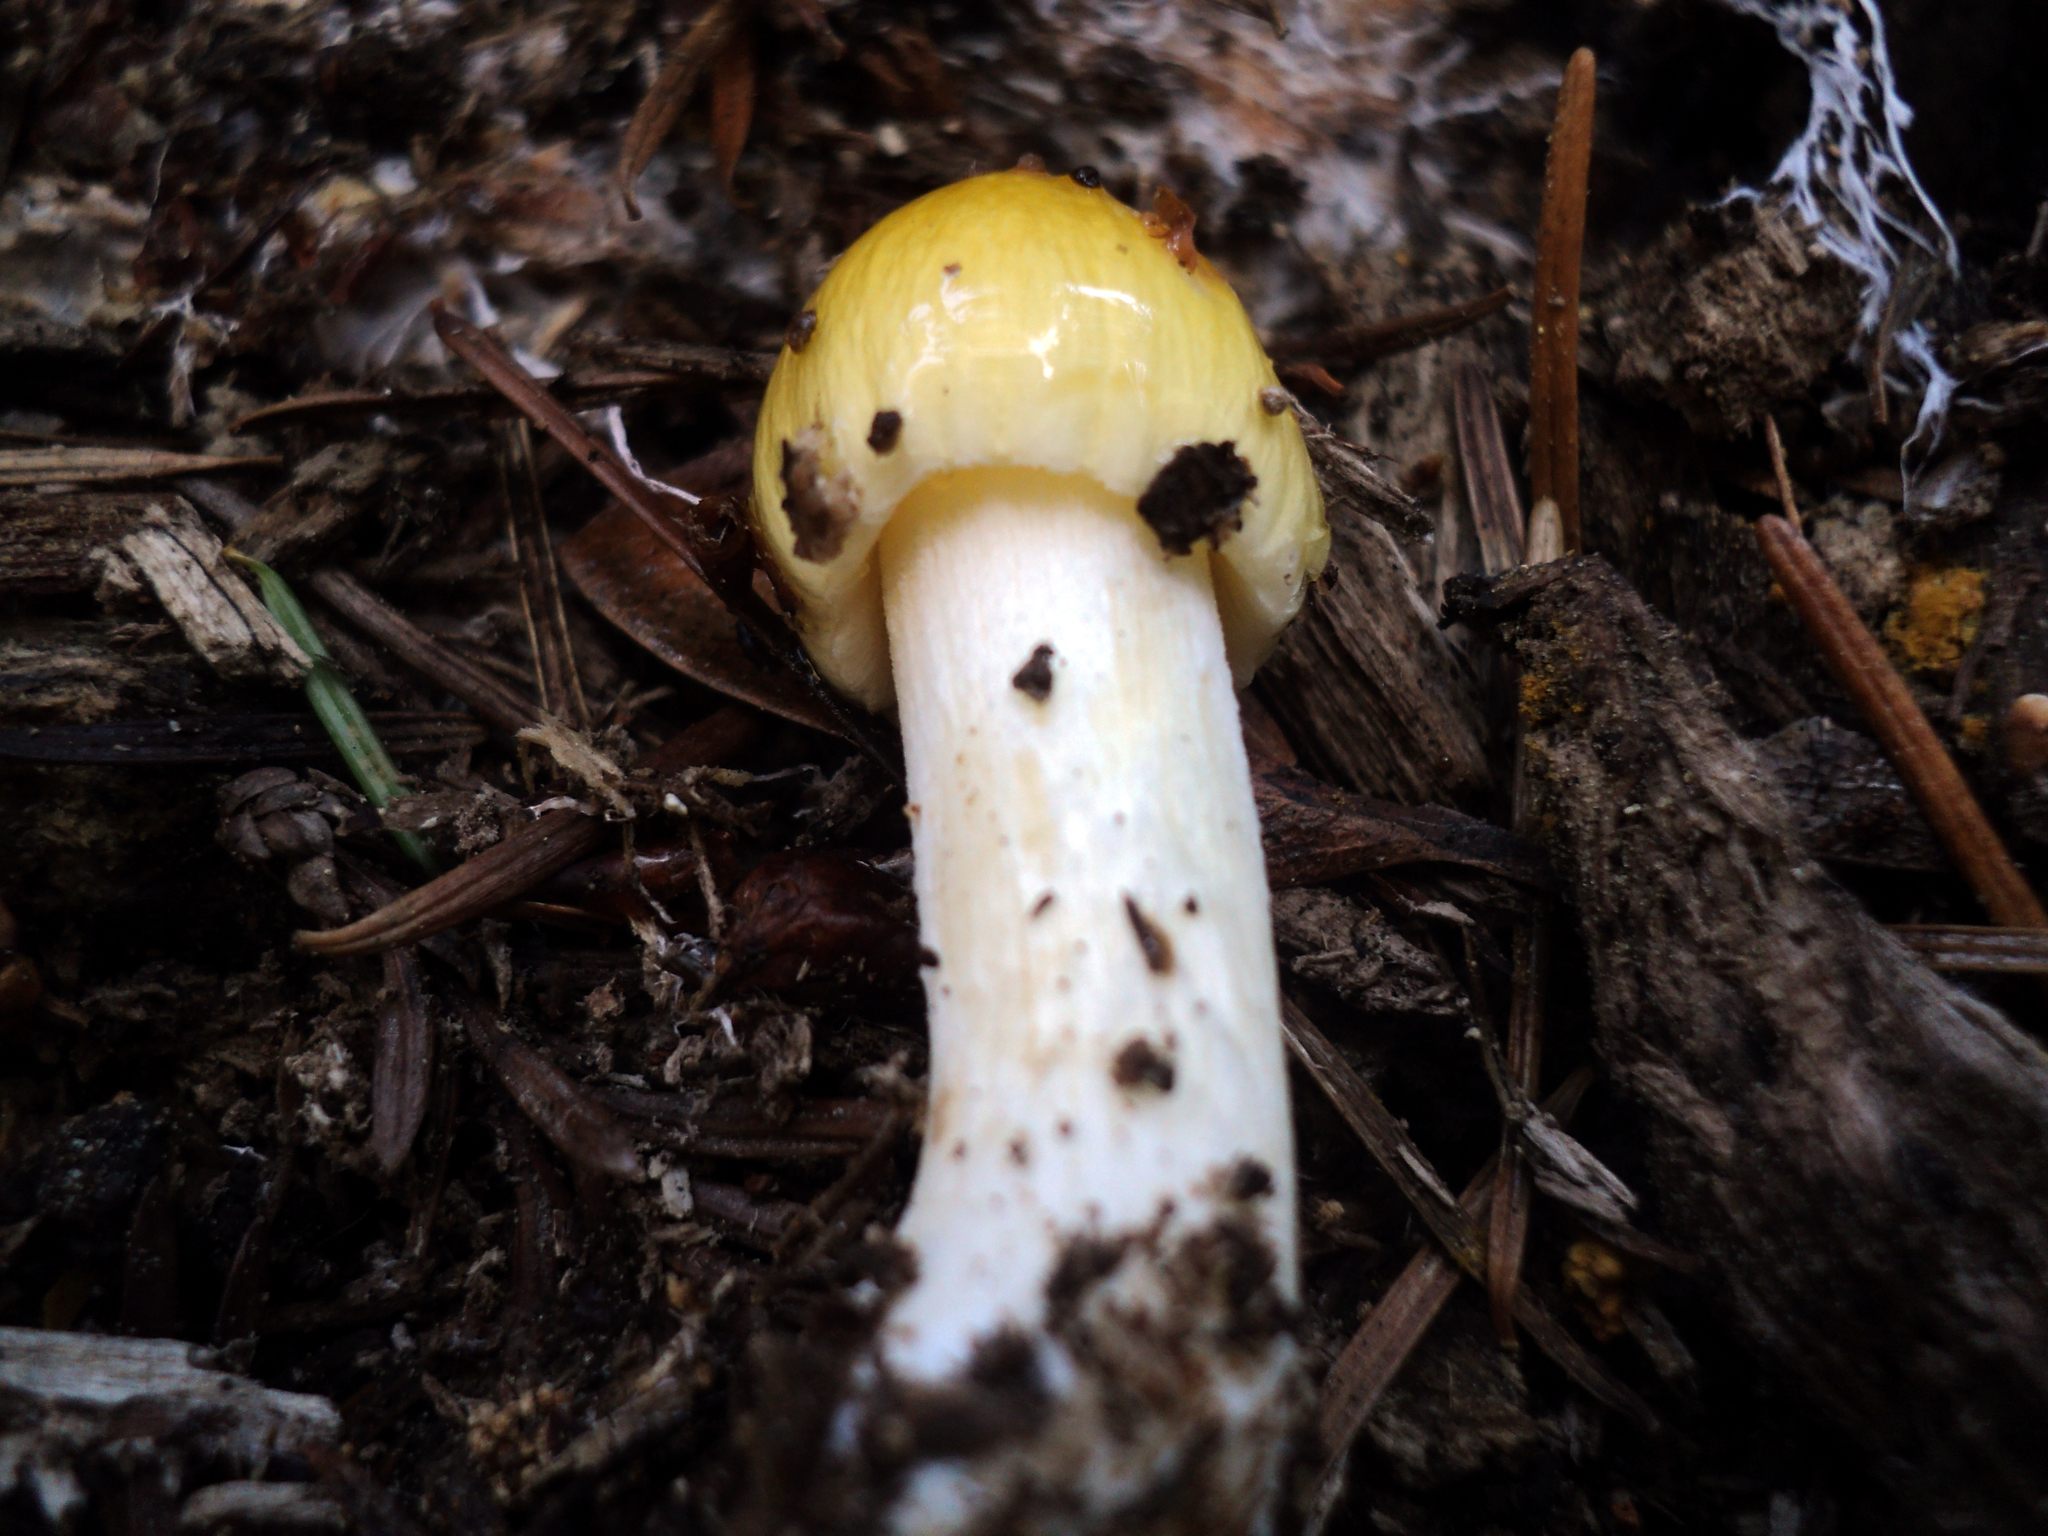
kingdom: Fungi
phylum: Basidiomycota
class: Agaricomycetes
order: Agaricales
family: Bolbitiaceae
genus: Bolbitius
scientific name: Bolbitius titubans
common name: Yellow fieldcap
